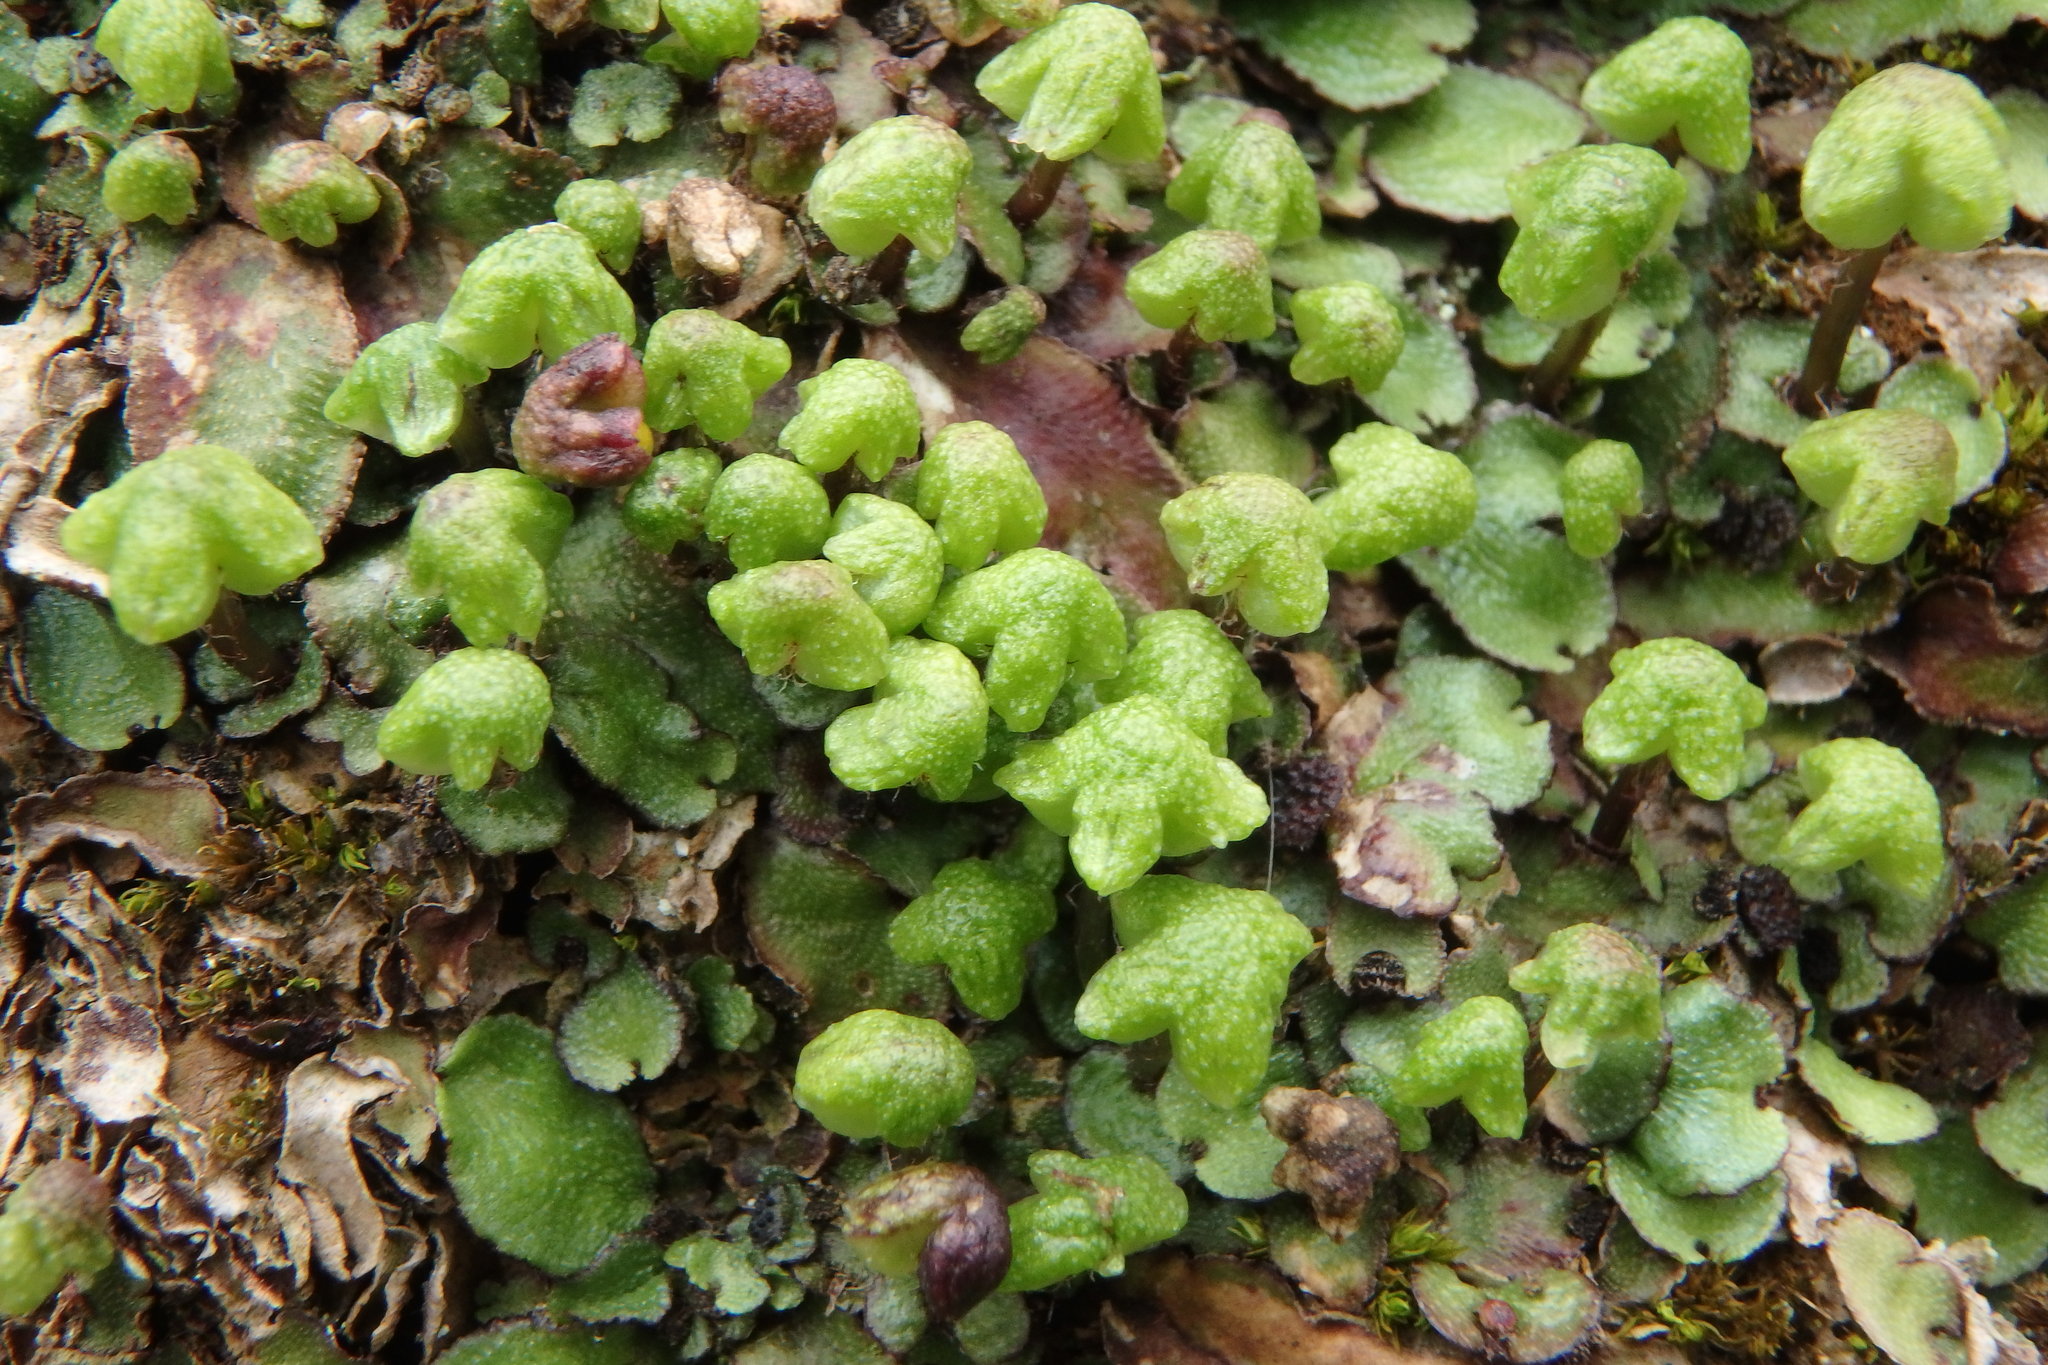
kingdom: Plantae
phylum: Marchantiophyta
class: Marchantiopsida
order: Marchantiales
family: Aytoniaceae
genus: Reboulia
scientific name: Reboulia hemisphaerica
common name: Purple-margined liverwort
